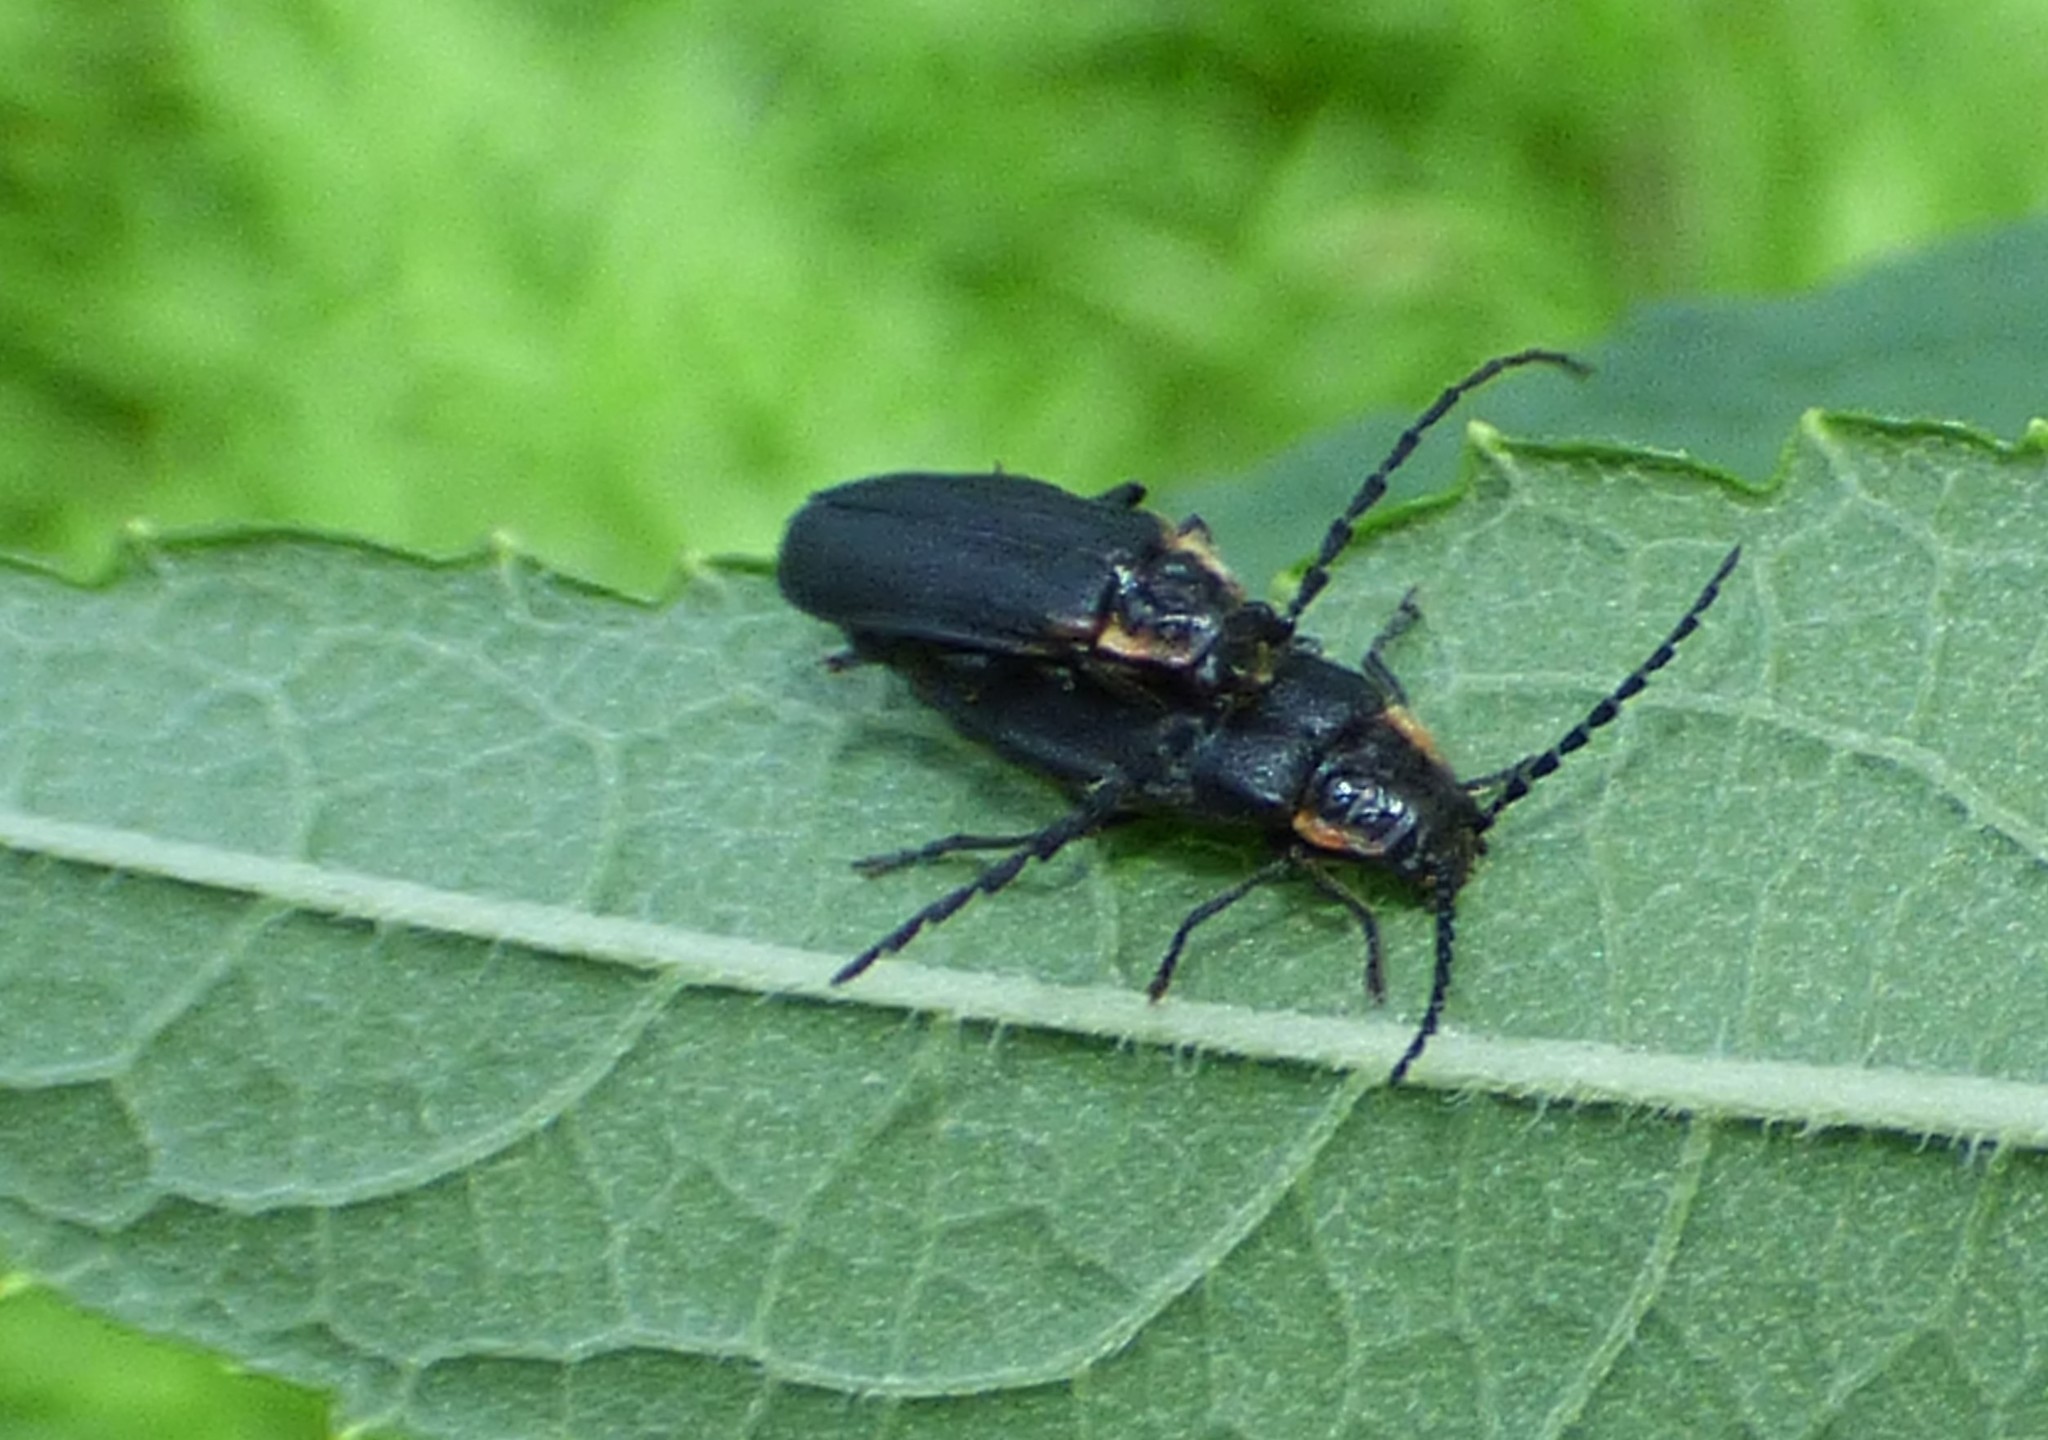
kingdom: Animalia
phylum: Arthropoda
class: Insecta
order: Coleoptera
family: Cantharidae
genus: Polemius
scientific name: Polemius laticornis
